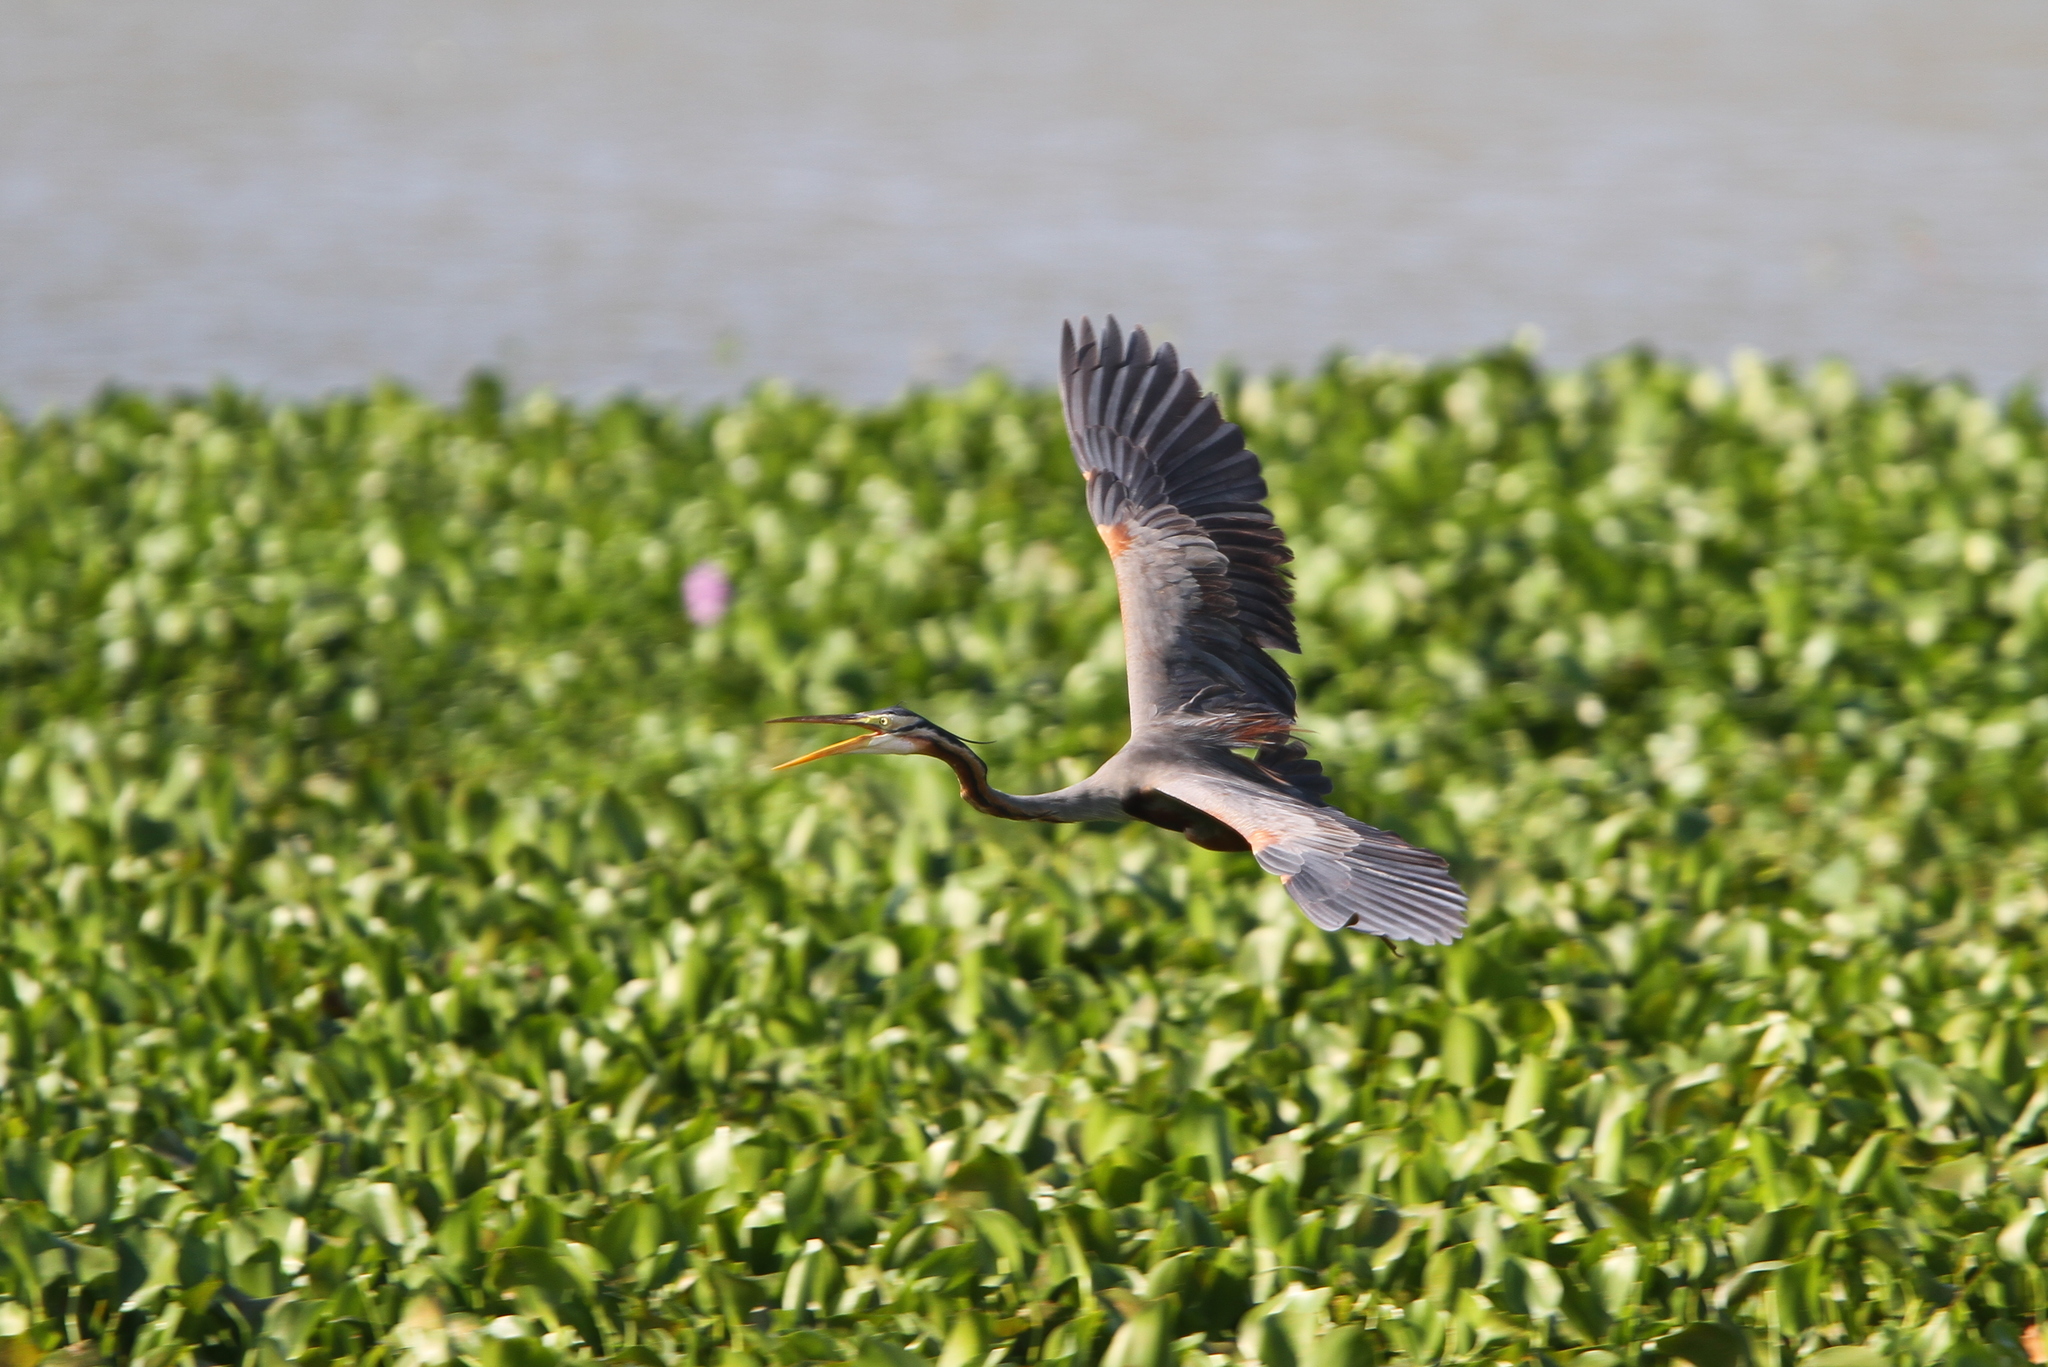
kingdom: Animalia
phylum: Chordata
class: Aves
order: Pelecaniformes
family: Ardeidae
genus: Ardea
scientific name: Ardea purpurea
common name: Purple heron
